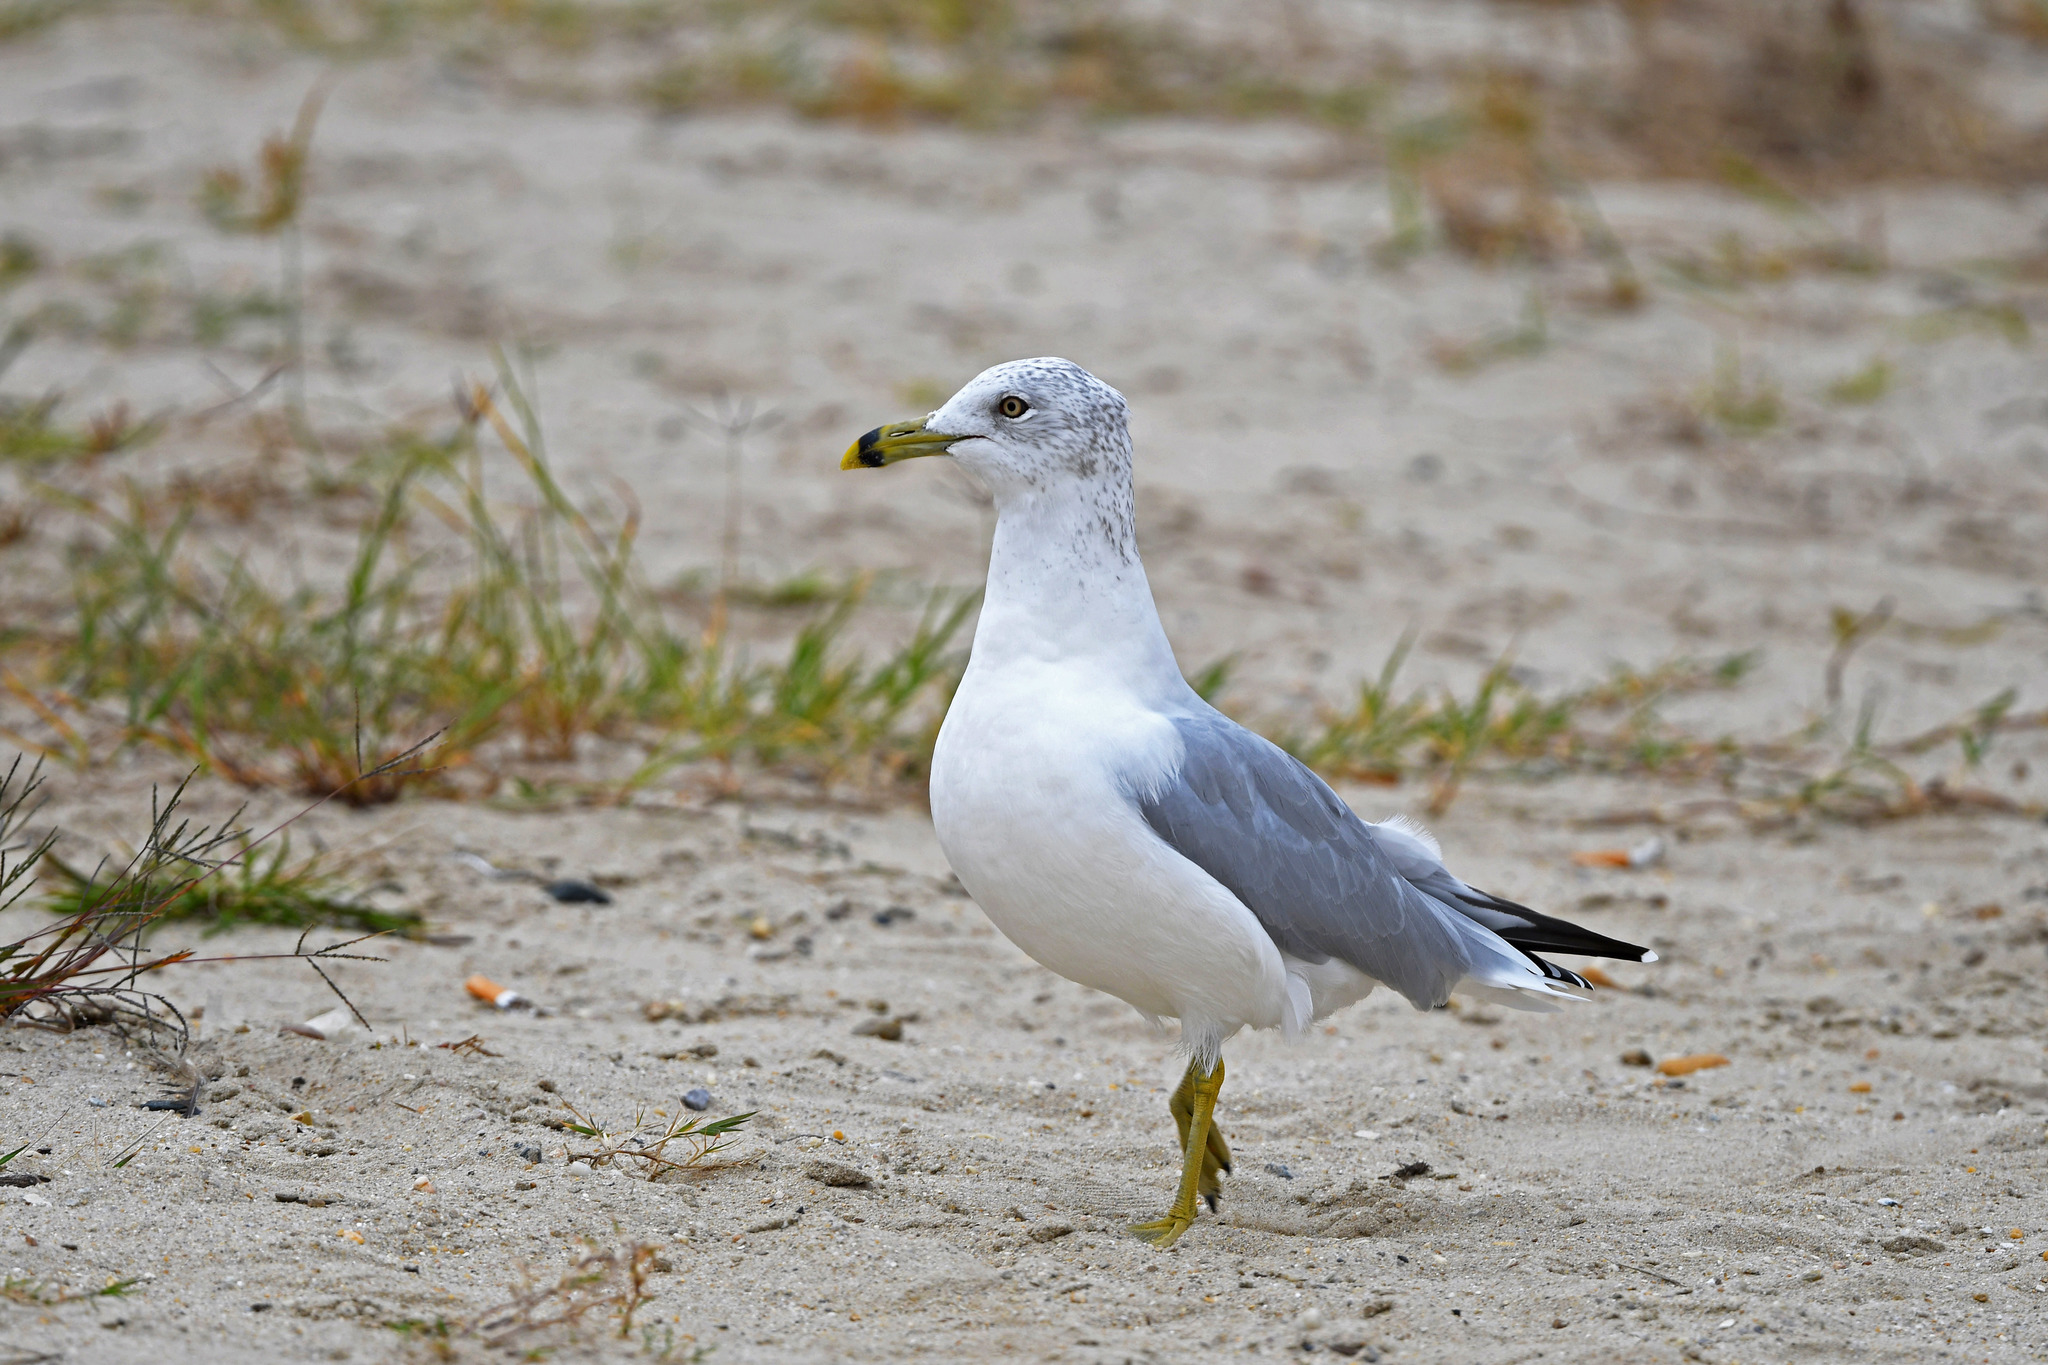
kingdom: Animalia
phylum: Chordata
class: Aves
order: Charadriiformes
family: Laridae
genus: Larus
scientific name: Larus delawarensis
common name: Ring-billed gull
